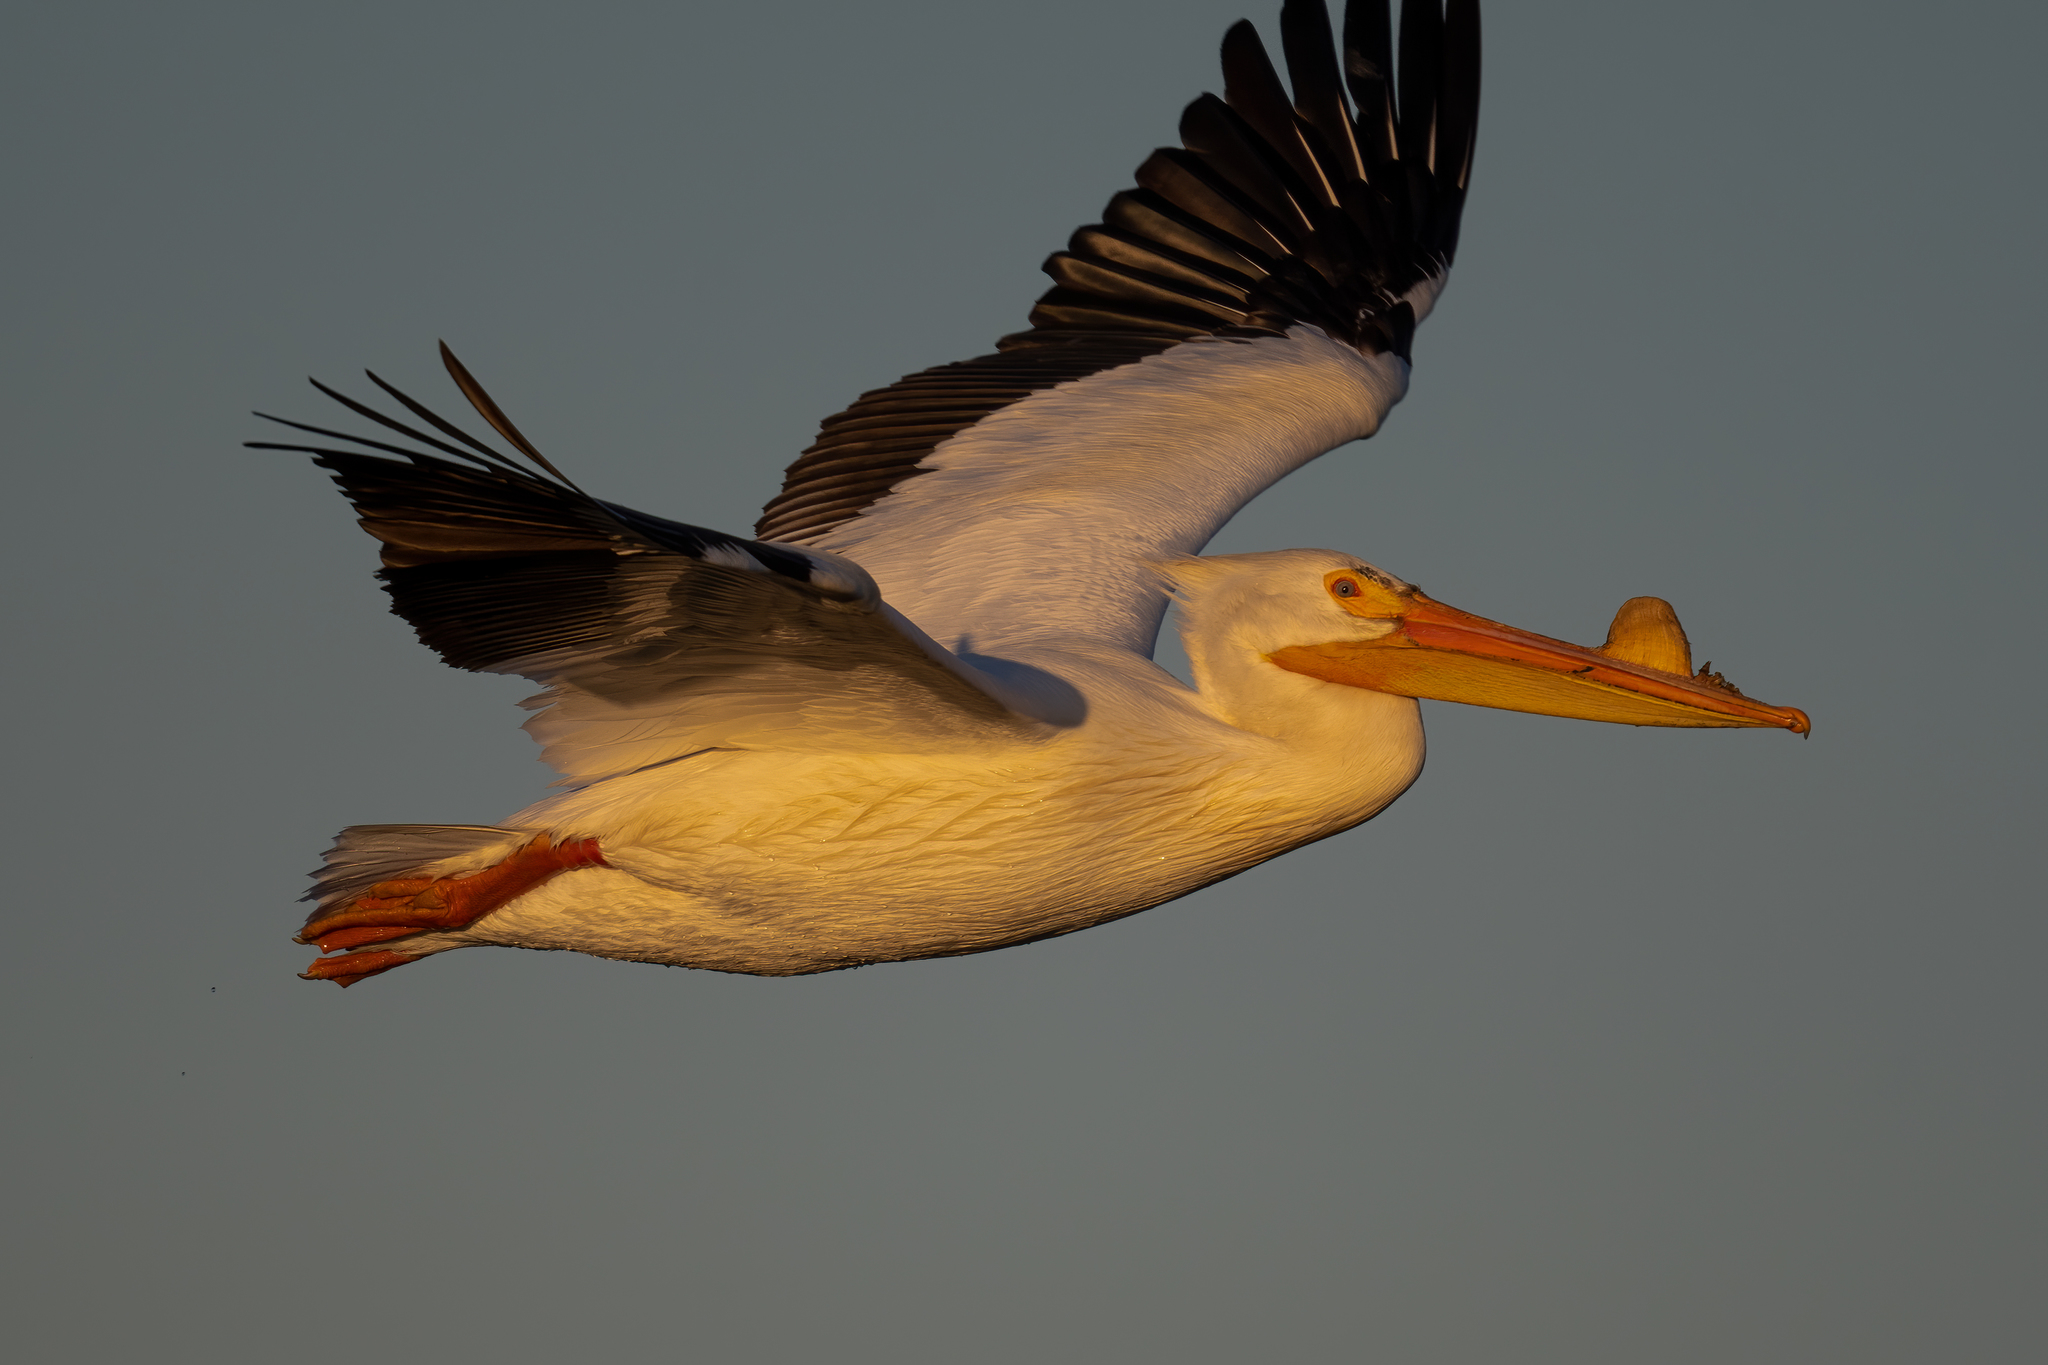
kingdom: Animalia
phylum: Chordata
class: Aves
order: Pelecaniformes
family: Pelecanidae
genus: Pelecanus
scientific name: Pelecanus erythrorhynchos
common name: American white pelican
